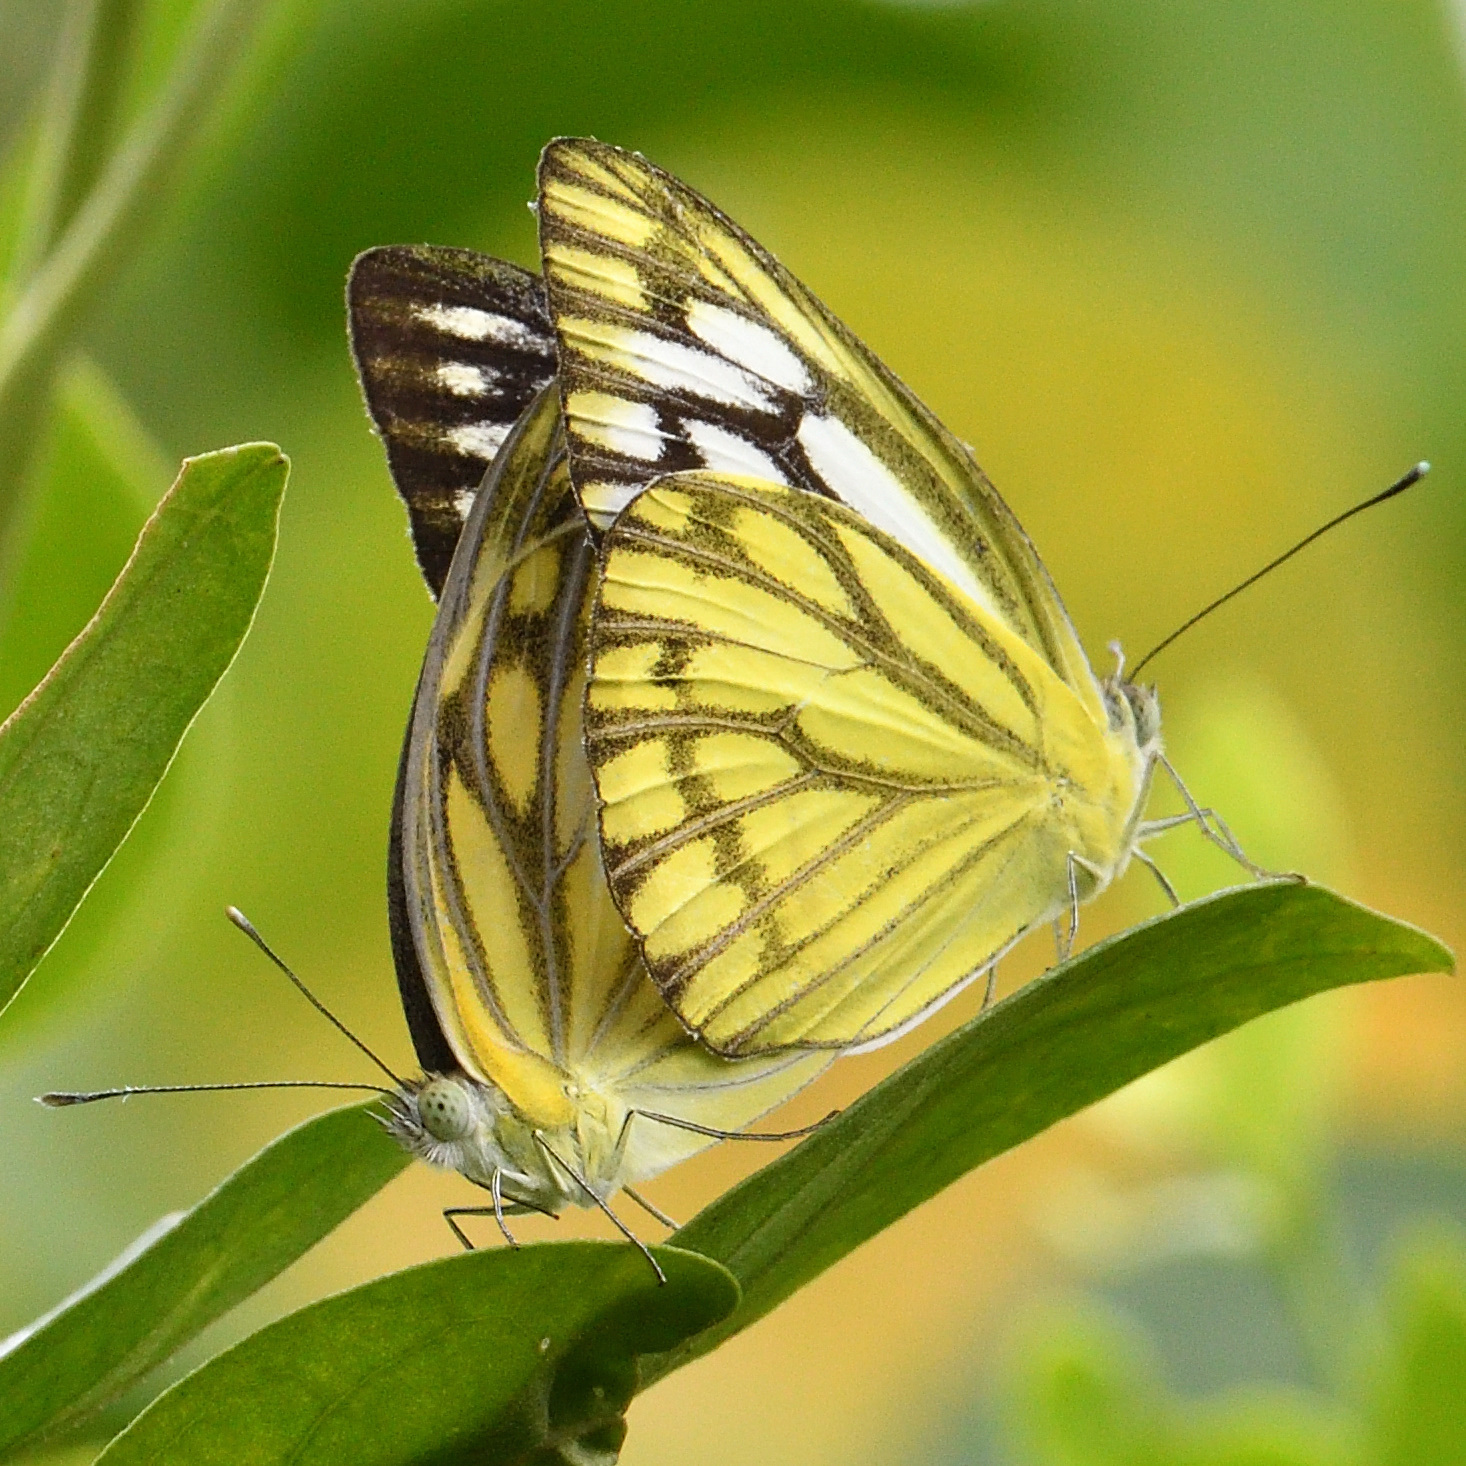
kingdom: Animalia
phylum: Arthropoda
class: Insecta
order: Lepidoptera
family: Pieridae
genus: Cepora
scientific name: Cepora nerissa
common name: Common gull
